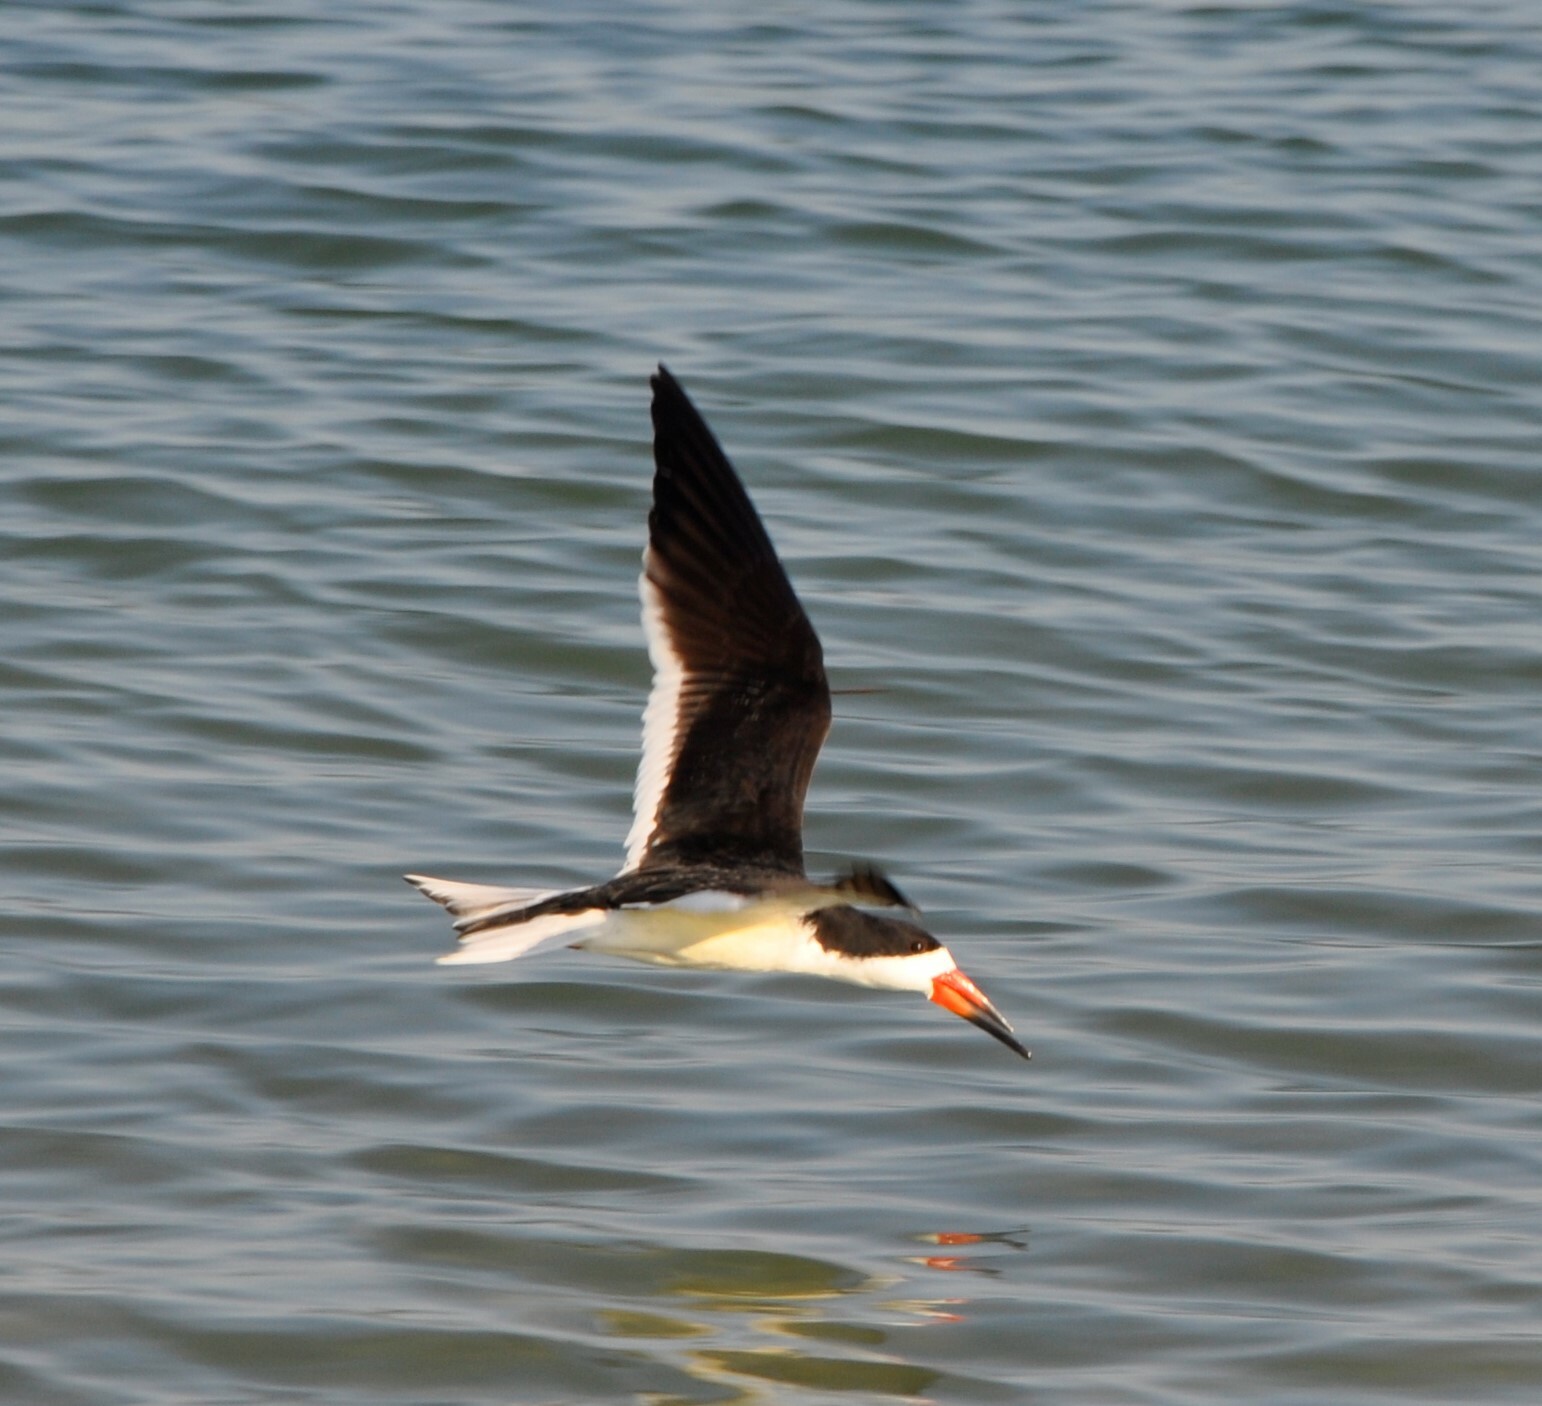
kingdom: Animalia
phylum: Chordata
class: Aves
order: Charadriiformes
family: Laridae
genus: Rynchops
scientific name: Rynchops niger
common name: Black skimmer
